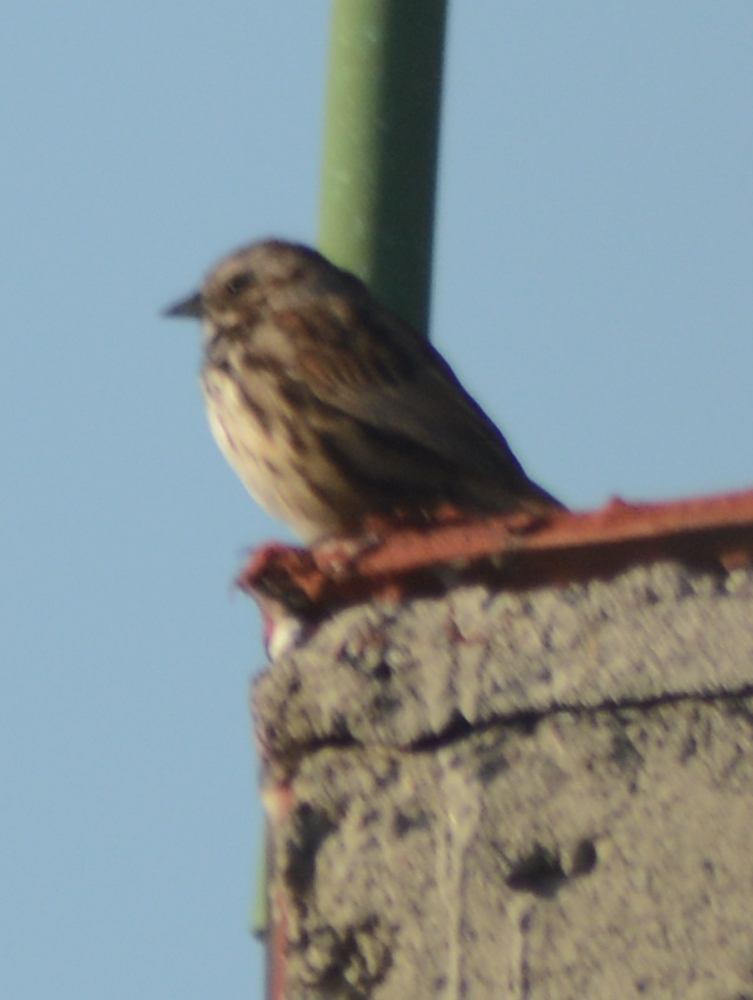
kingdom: Animalia
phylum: Chordata
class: Aves
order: Passeriformes
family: Passerellidae
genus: Melospiza
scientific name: Melospiza melodia
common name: Song sparrow
